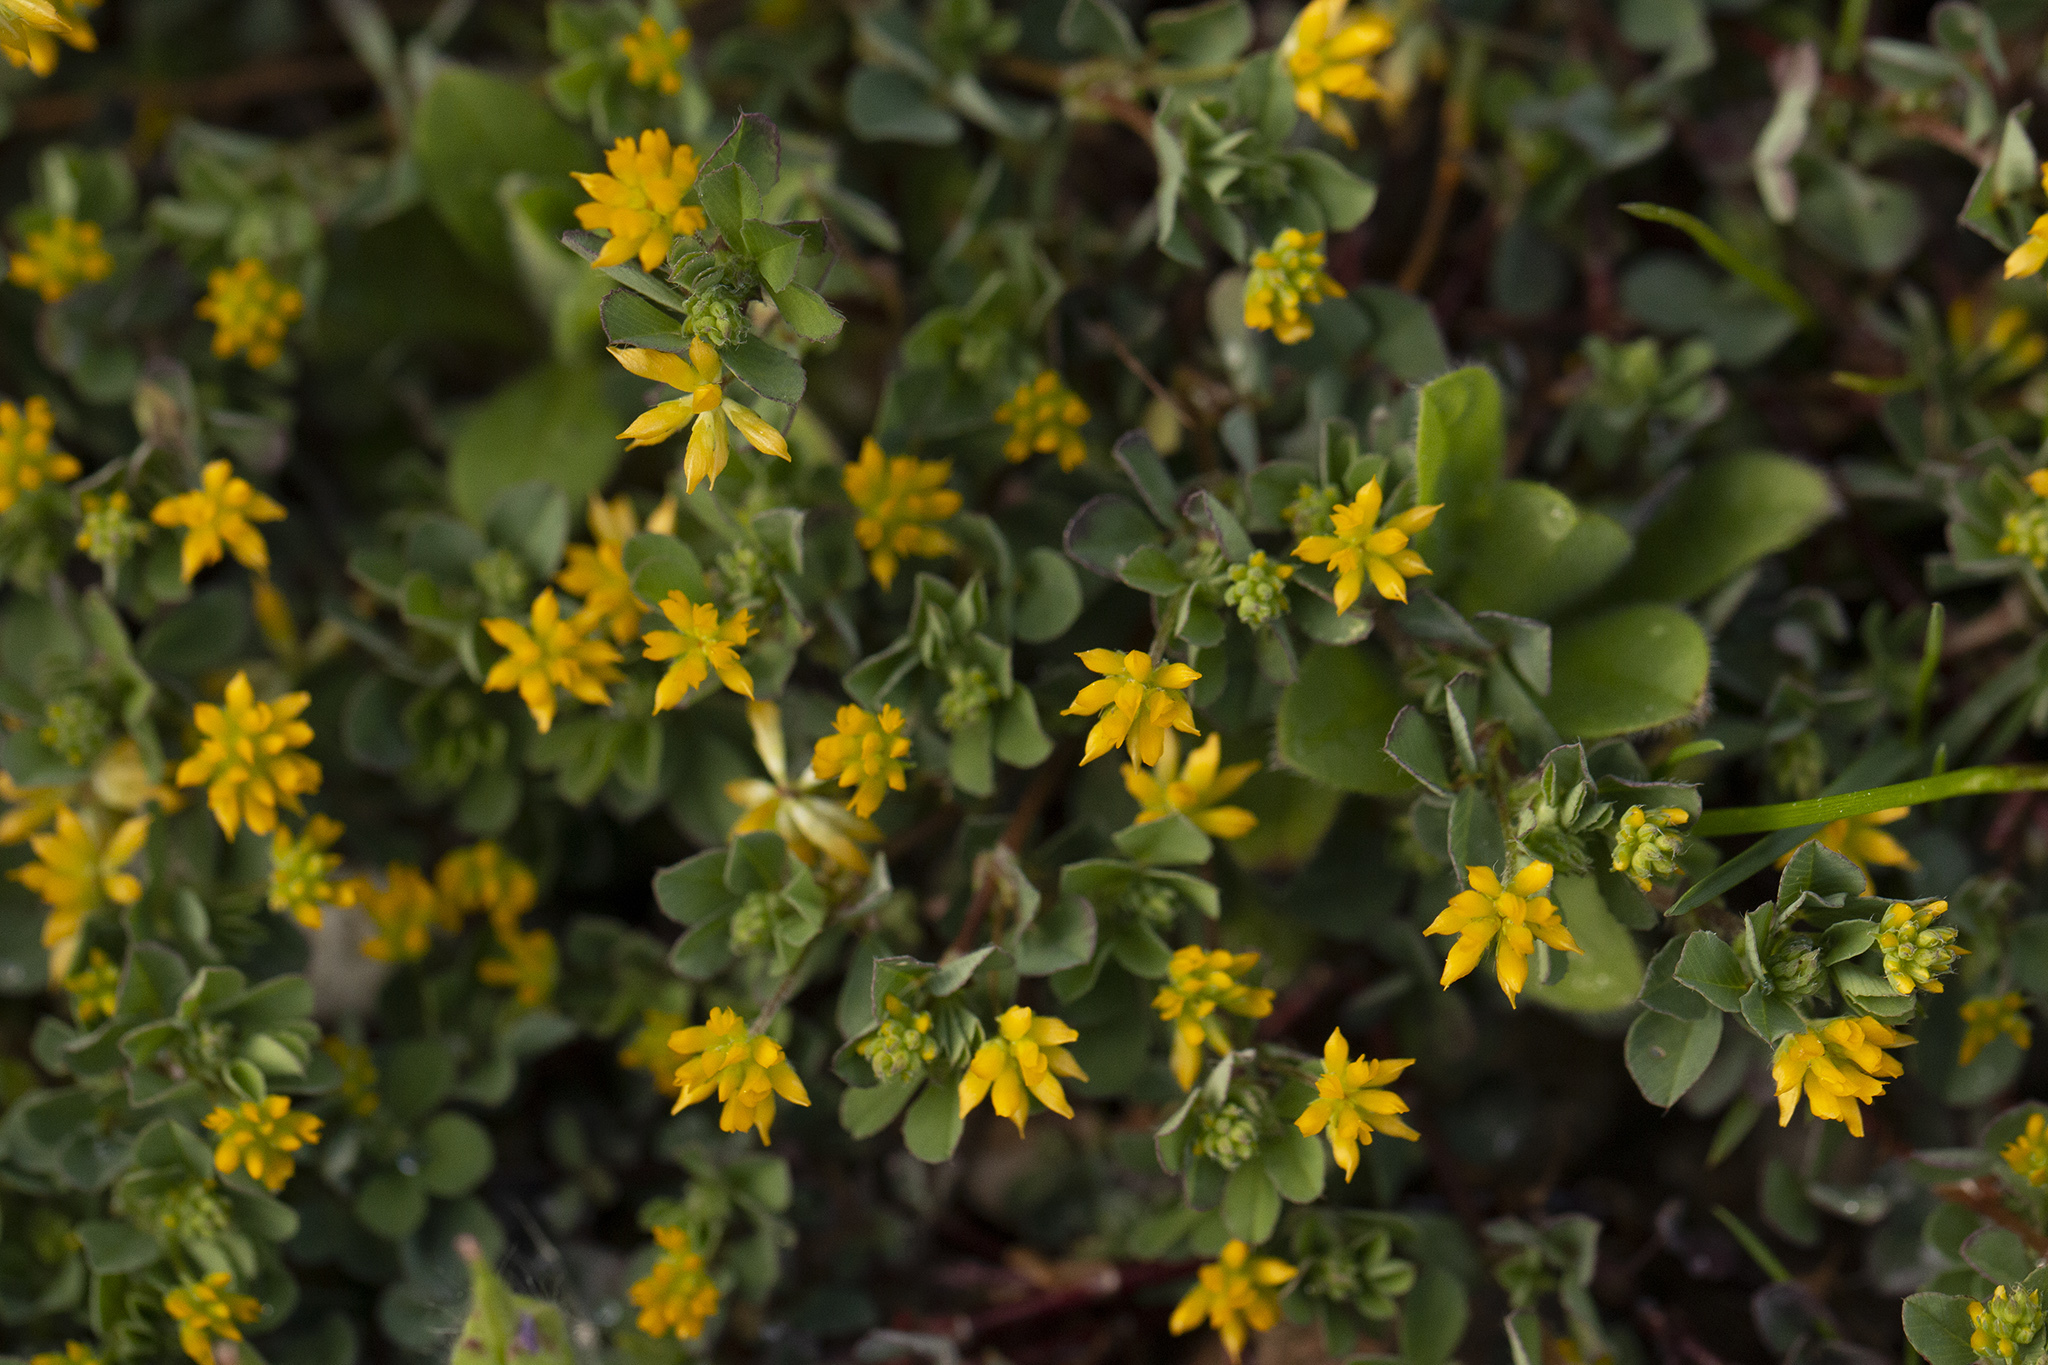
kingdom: Plantae
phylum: Tracheophyta
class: Magnoliopsida
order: Fabales
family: Fabaceae
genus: Trifolium
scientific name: Trifolium dubium
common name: Suckling clover
